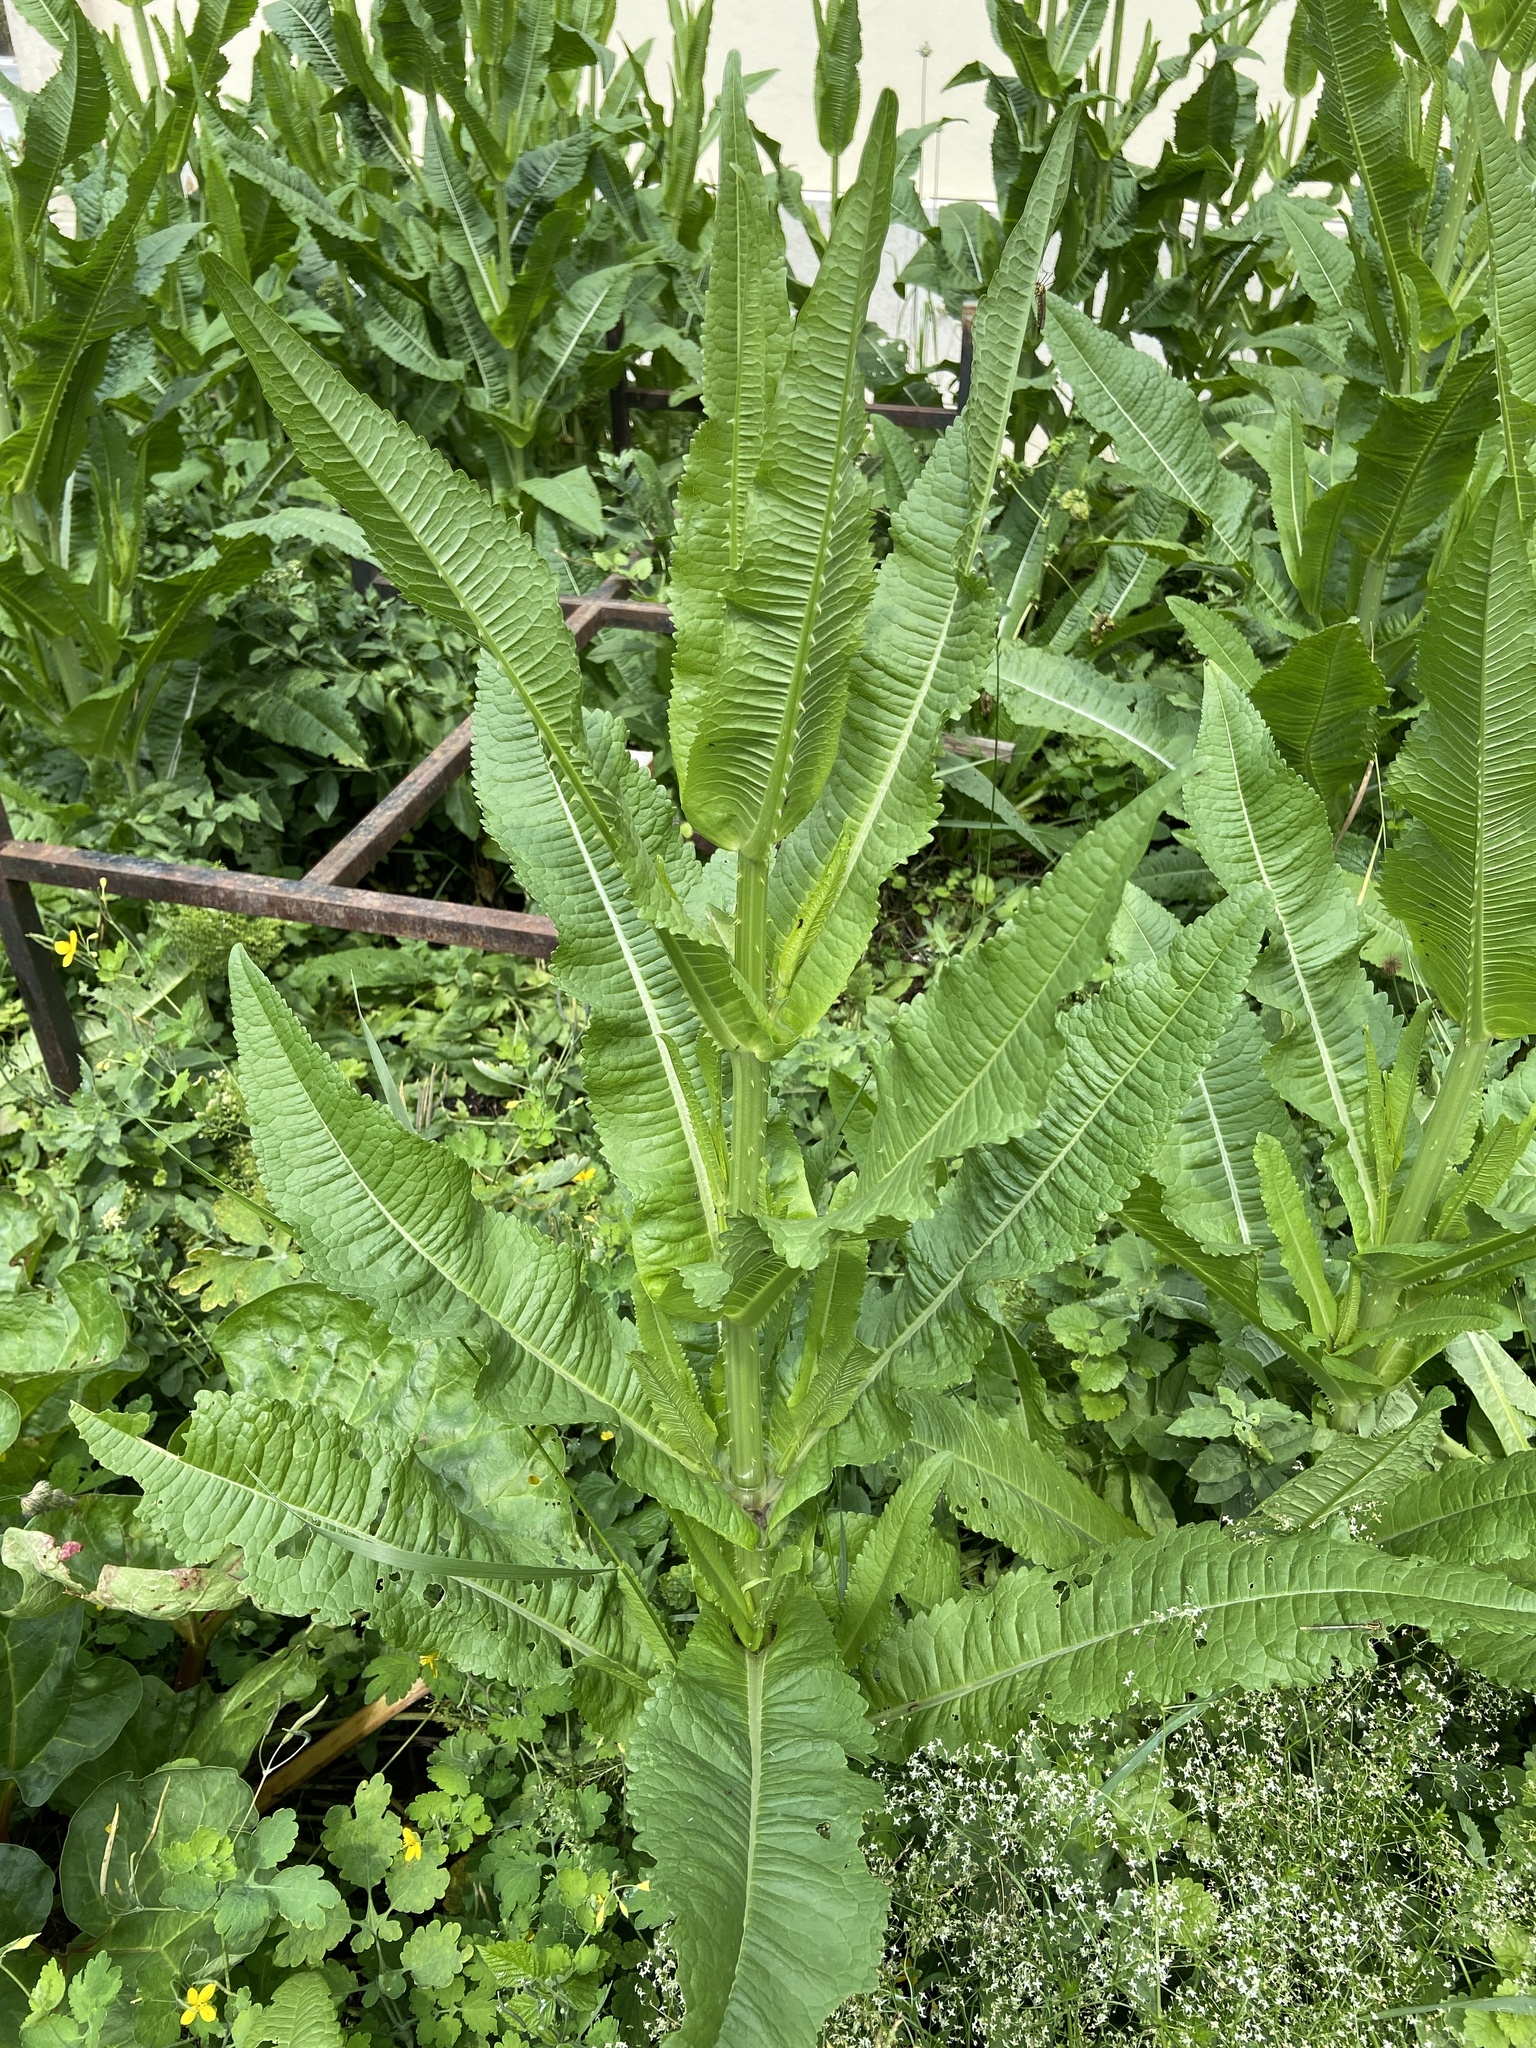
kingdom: Plantae
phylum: Tracheophyta
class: Magnoliopsida
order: Dipsacales
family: Caprifoliaceae
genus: Dipsacus
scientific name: Dipsacus fullonum
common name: Teasel
